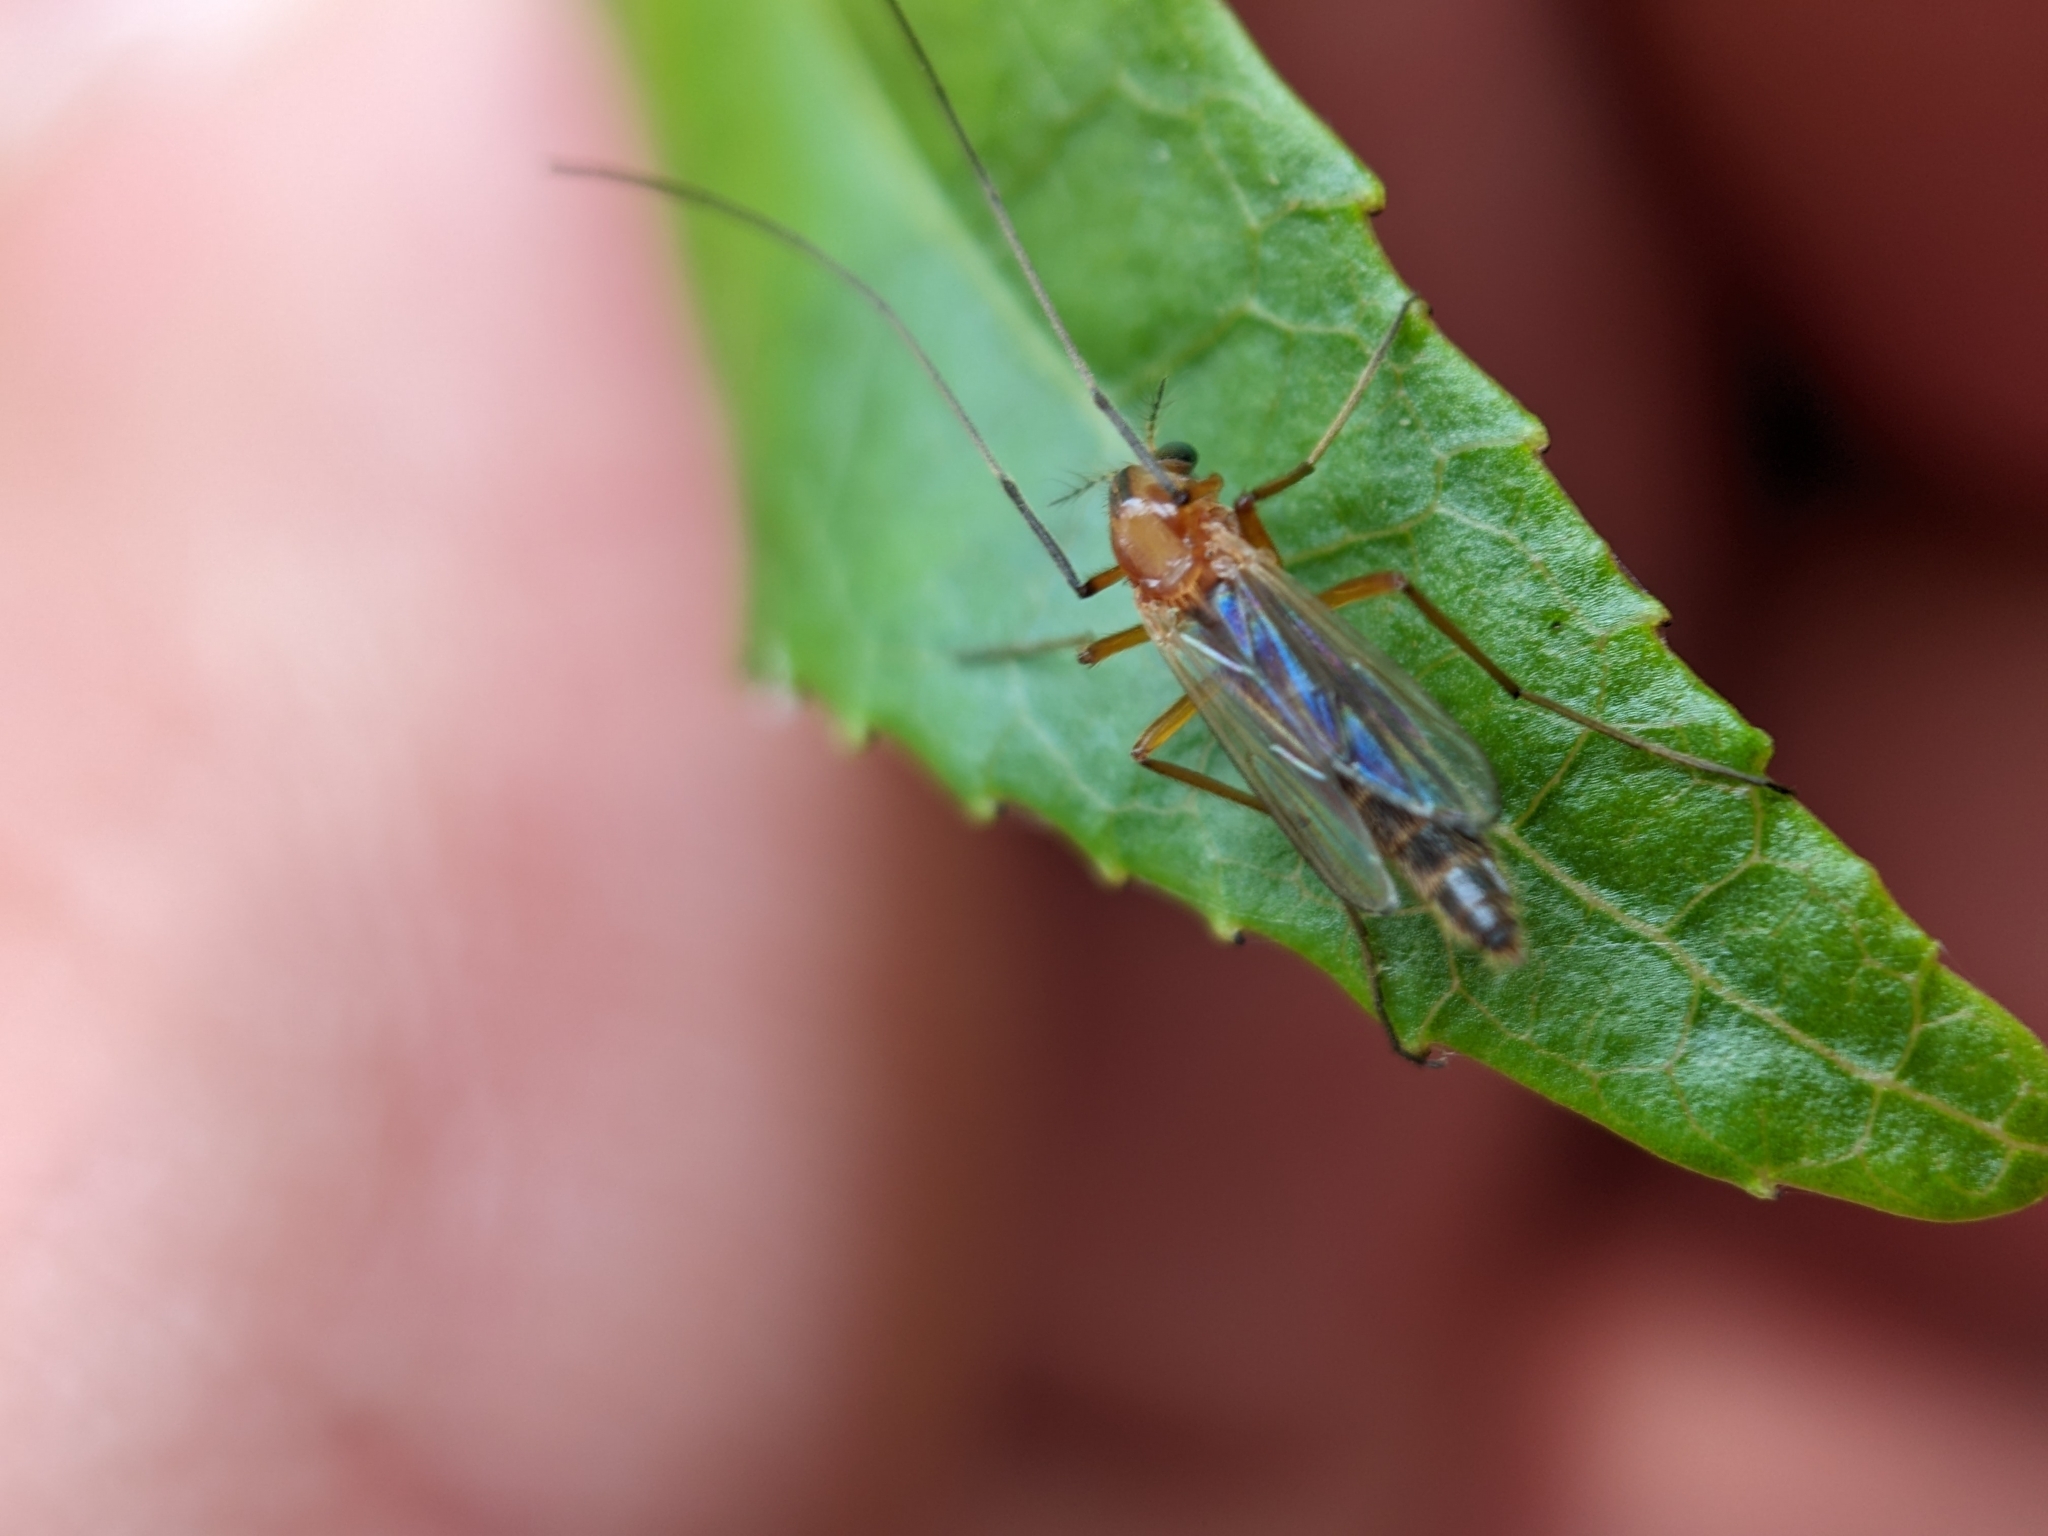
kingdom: Animalia
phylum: Arthropoda
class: Insecta
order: Diptera
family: Chironomidae
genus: Chironomus
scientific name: Chironomus ochreatus
